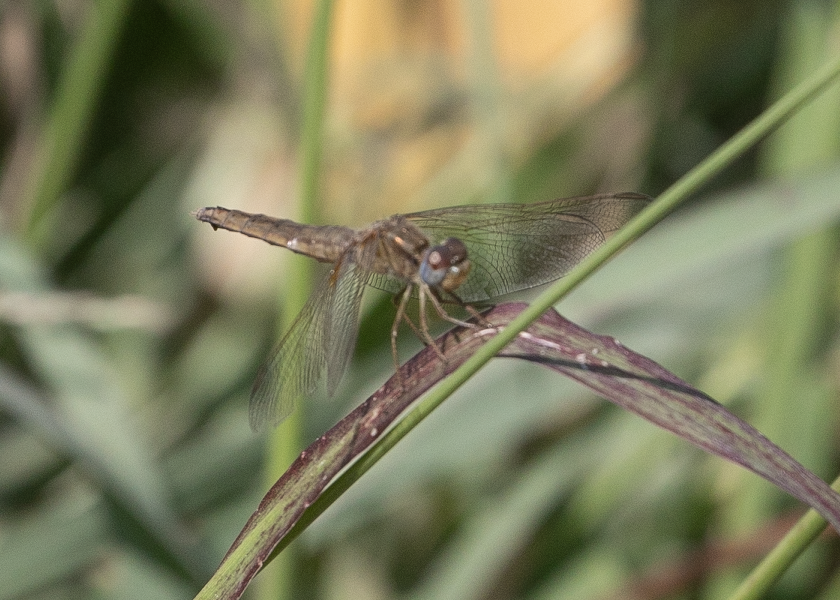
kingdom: Animalia
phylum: Arthropoda
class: Insecta
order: Odonata
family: Libellulidae
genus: Crocothemis
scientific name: Crocothemis erythraea
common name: Scarlet dragonfly
